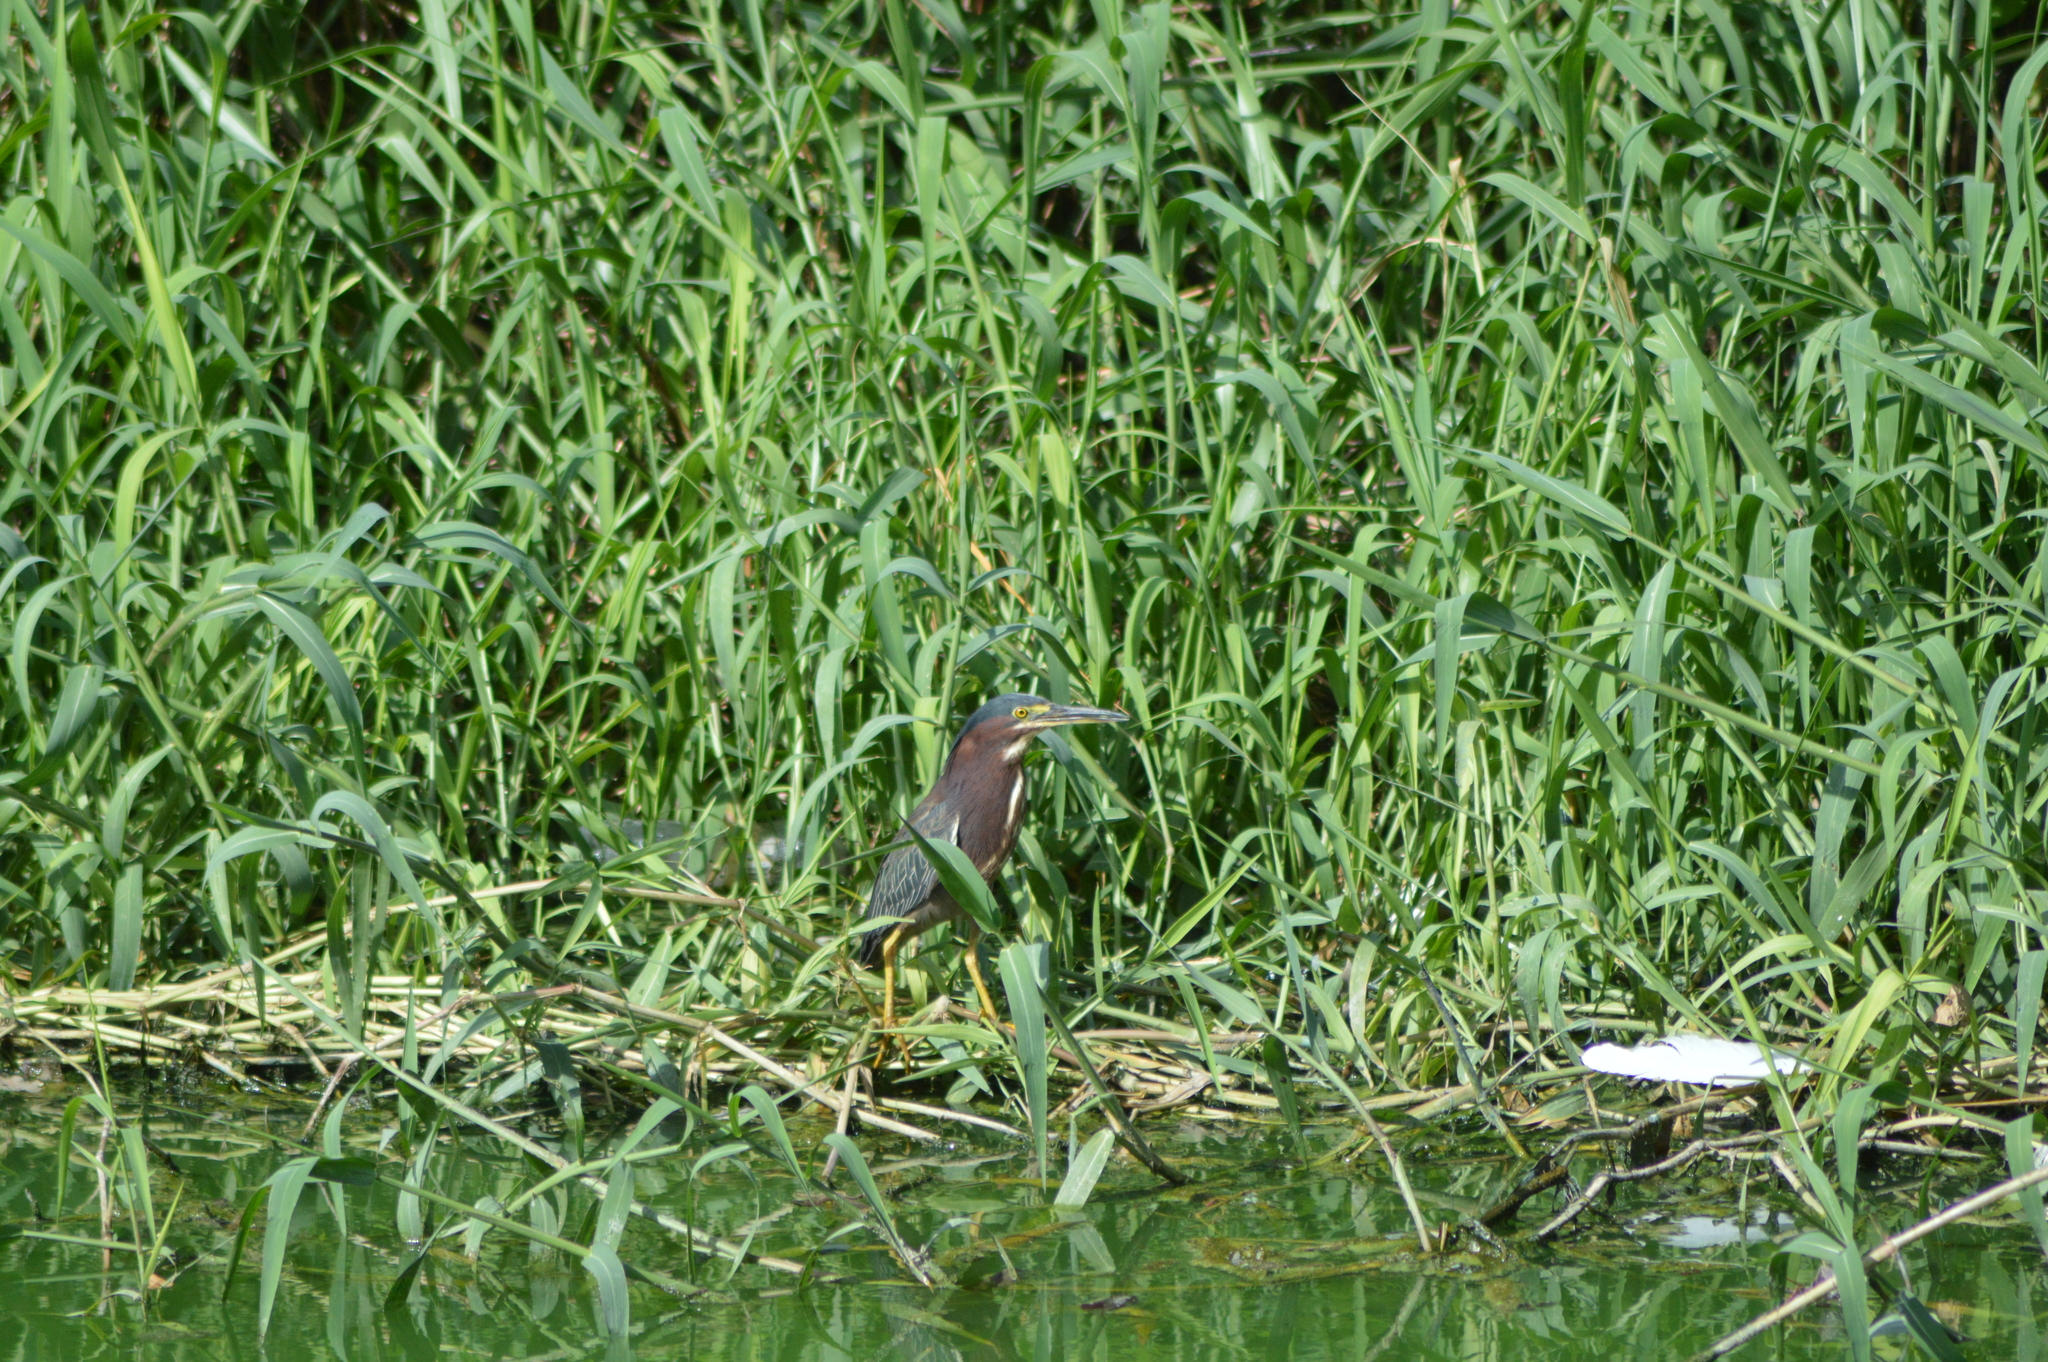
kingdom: Animalia
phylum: Chordata
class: Aves
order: Pelecaniformes
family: Ardeidae
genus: Butorides
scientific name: Butorides virescens
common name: Green heron
